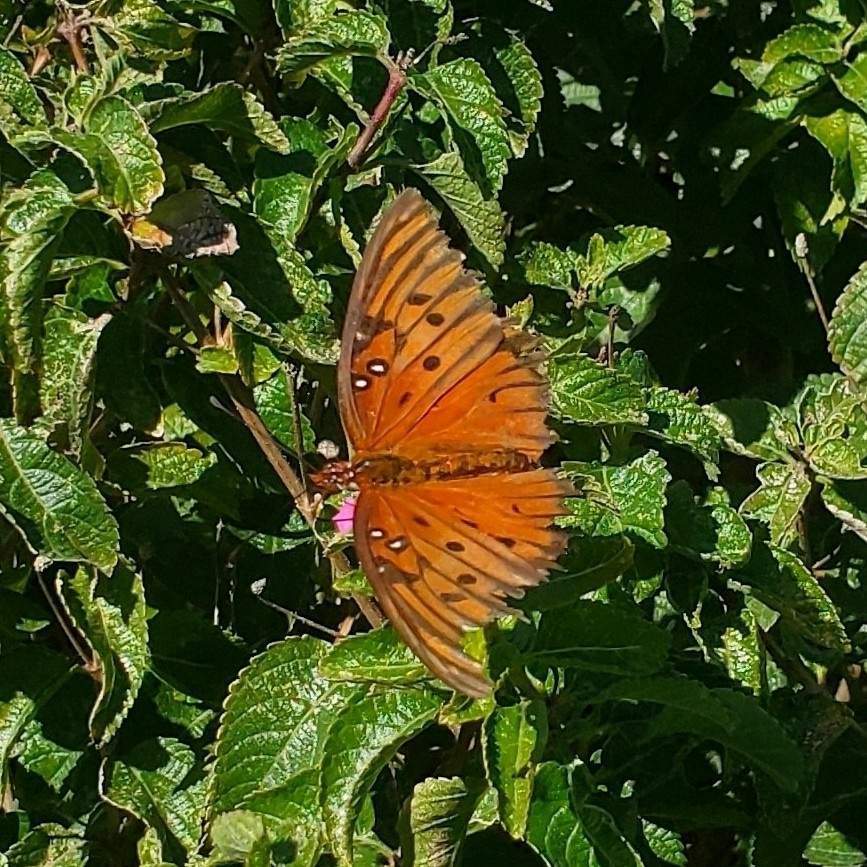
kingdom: Animalia
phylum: Arthropoda
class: Insecta
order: Lepidoptera
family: Nymphalidae
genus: Dione
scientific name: Dione vanillae
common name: Gulf fritillary
